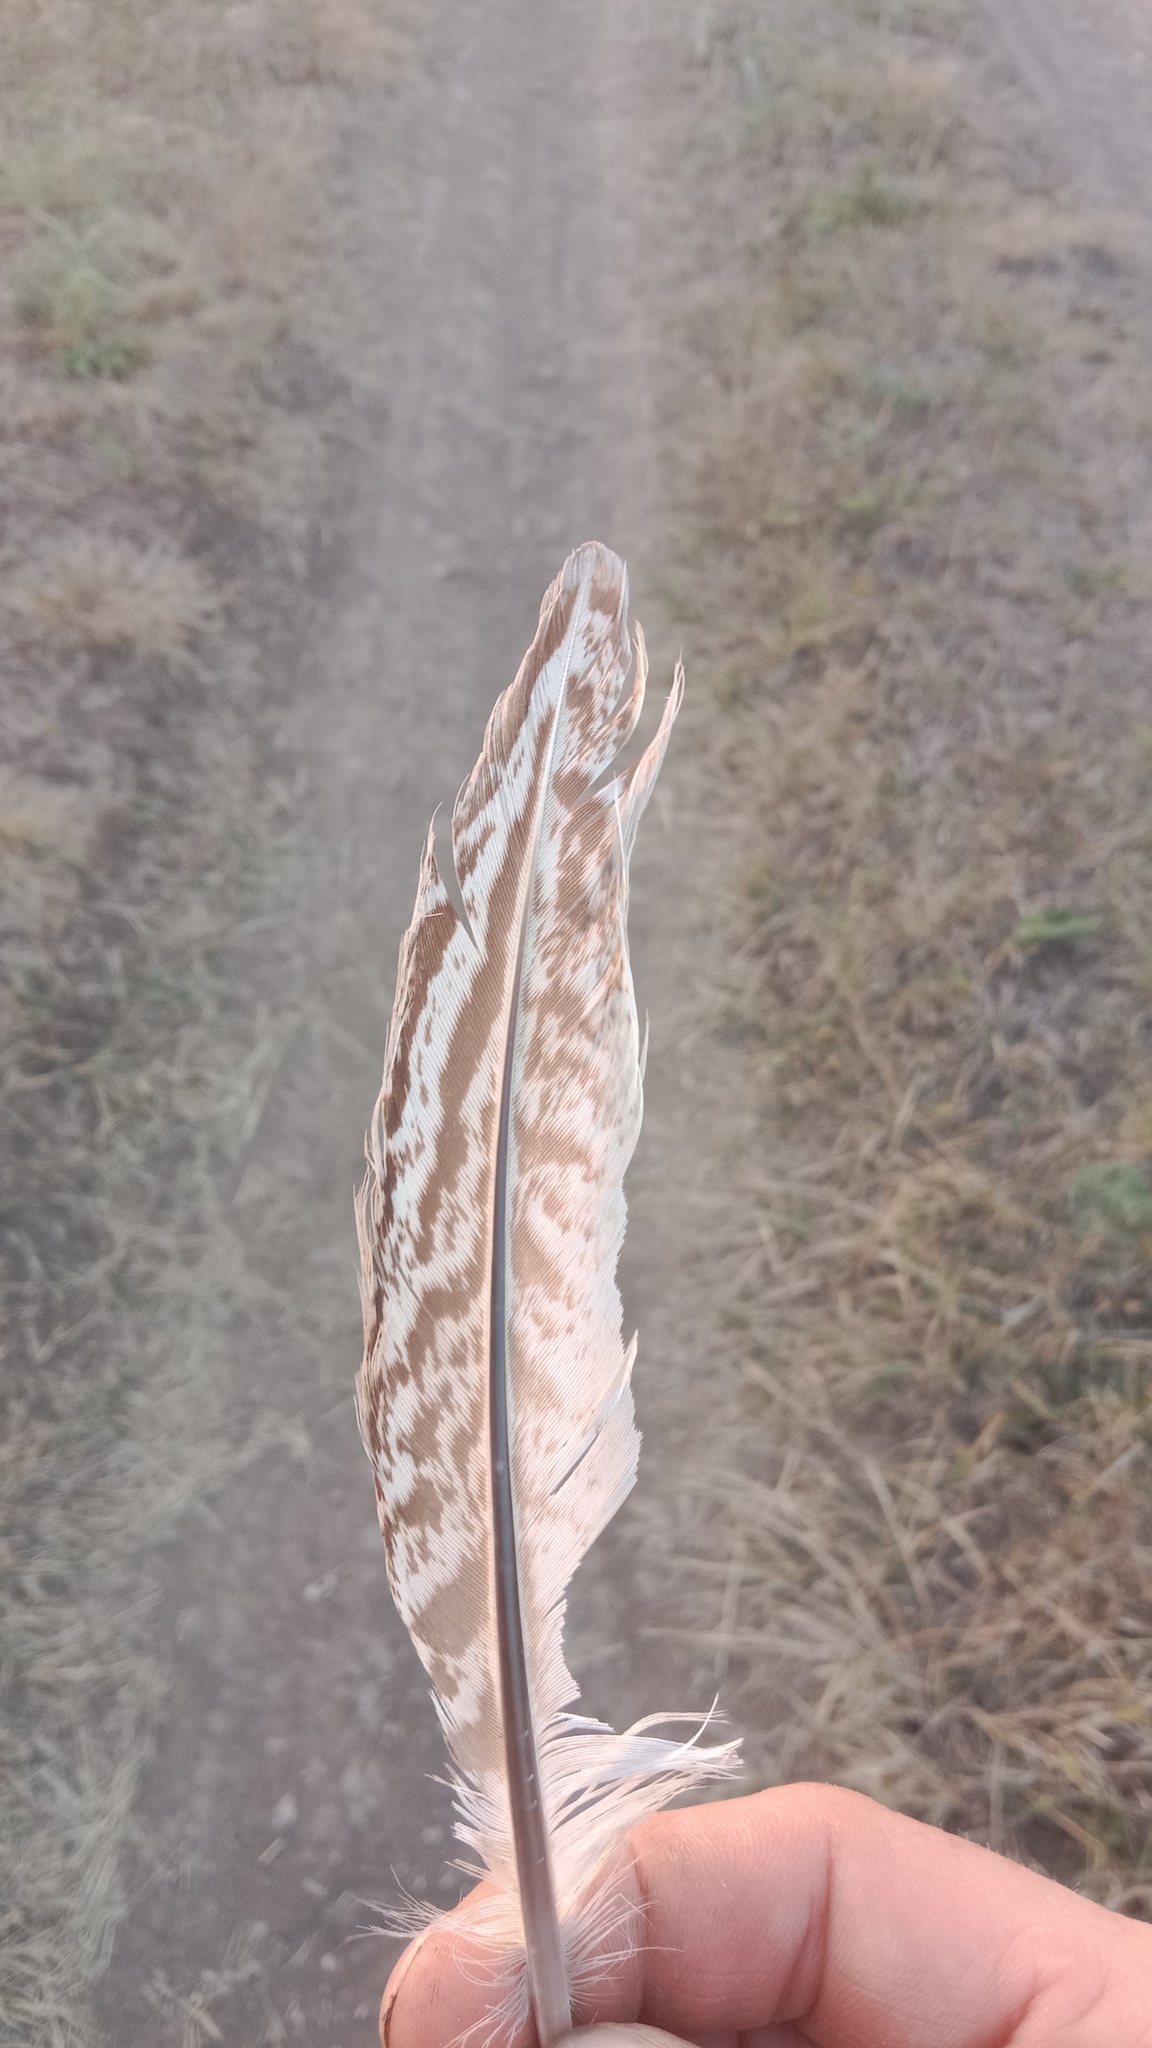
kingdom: Animalia
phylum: Chordata
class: Aves
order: Galliformes
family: Phasianidae
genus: Phasianus
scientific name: Phasianus colchicus
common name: Common pheasant
